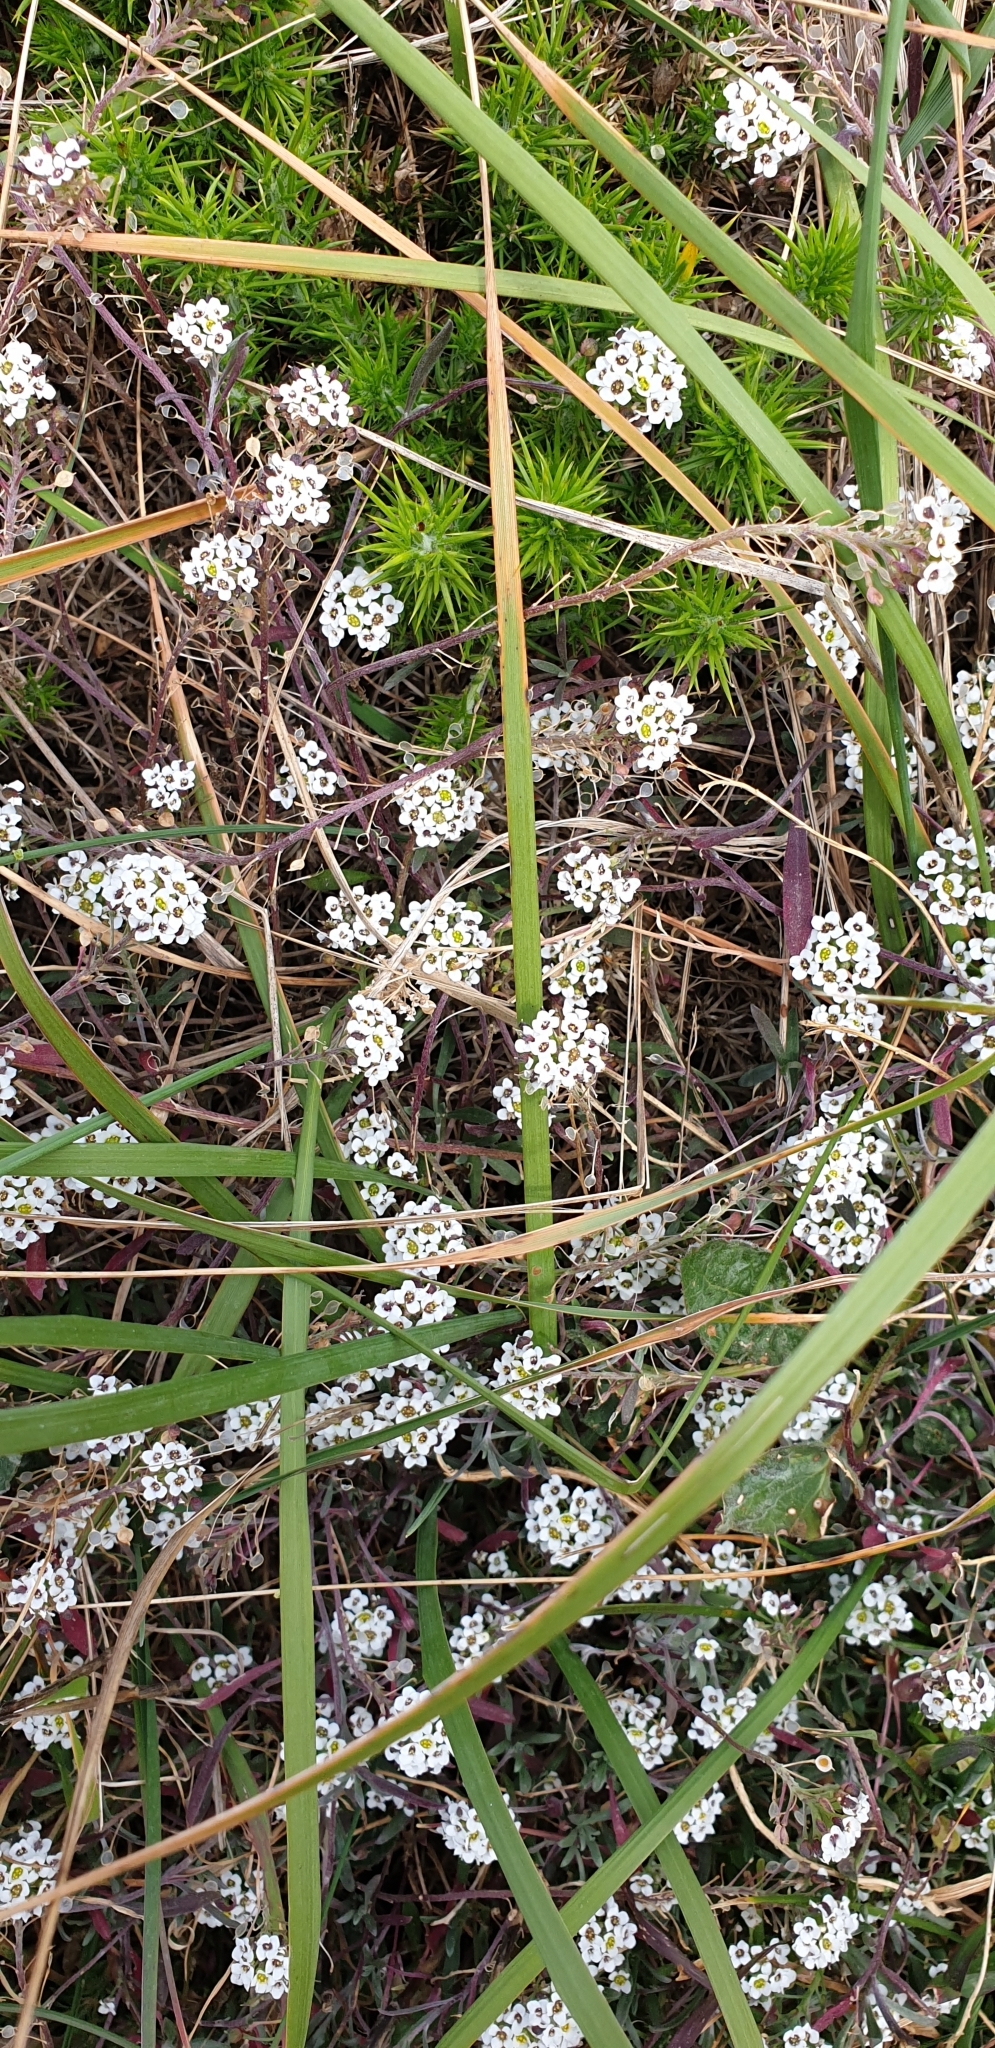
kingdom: Plantae
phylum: Tracheophyta
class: Magnoliopsida
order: Brassicales
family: Brassicaceae
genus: Lobularia
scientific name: Lobularia maritima
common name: Sweet alison
